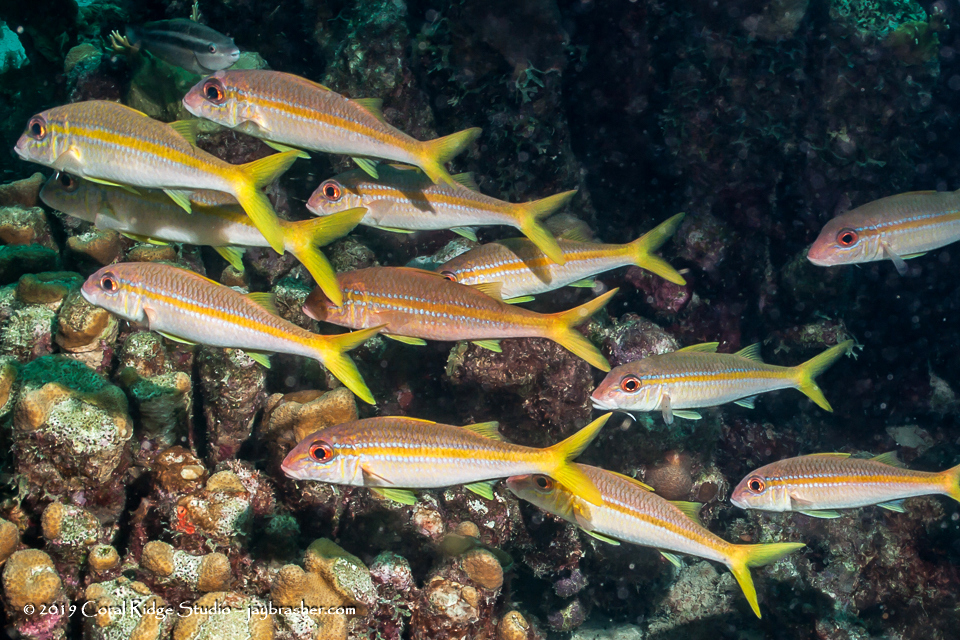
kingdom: Animalia
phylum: Chordata
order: Perciformes
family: Mullidae
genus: Mulloidichthys
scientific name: Mulloidichthys martinicus
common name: Yellow goatfish
